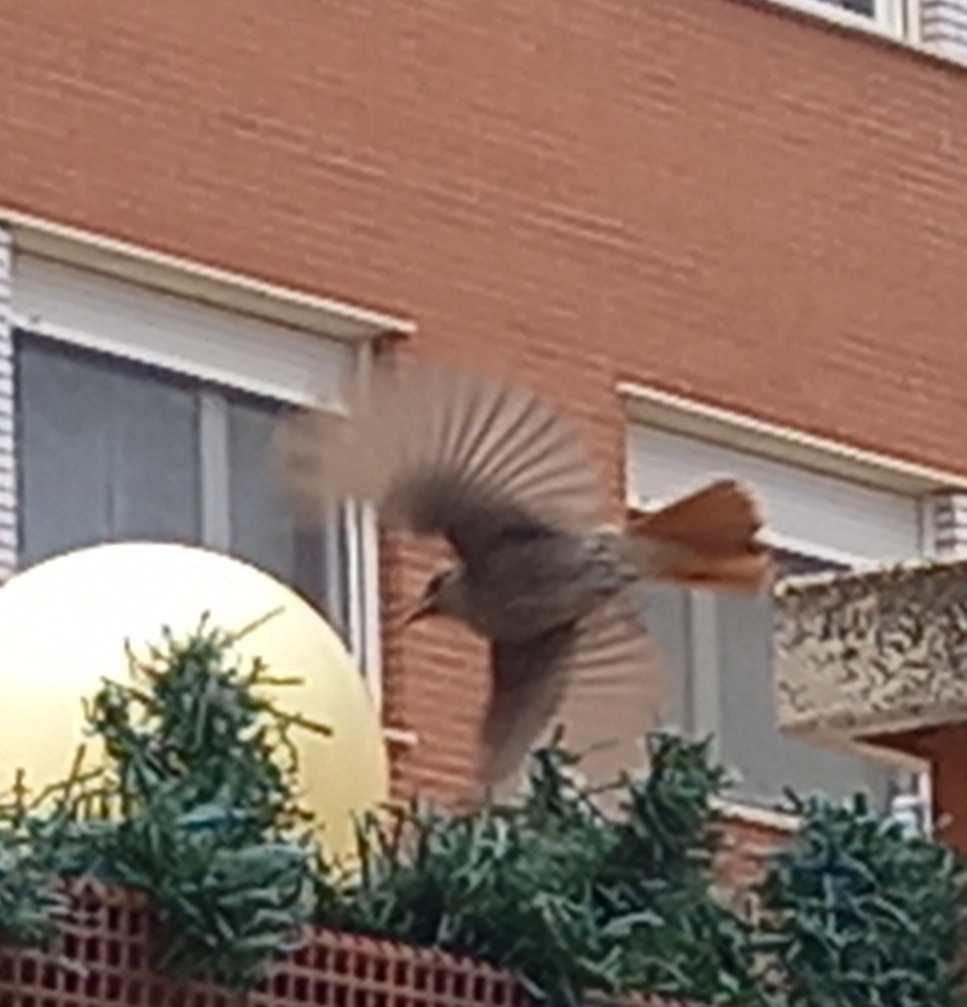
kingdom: Animalia
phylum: Chordata
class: Aves
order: Passeriformes
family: Muscicapidae
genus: Phoenicurus
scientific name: Phoenicurus ochruros
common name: Black redstart
